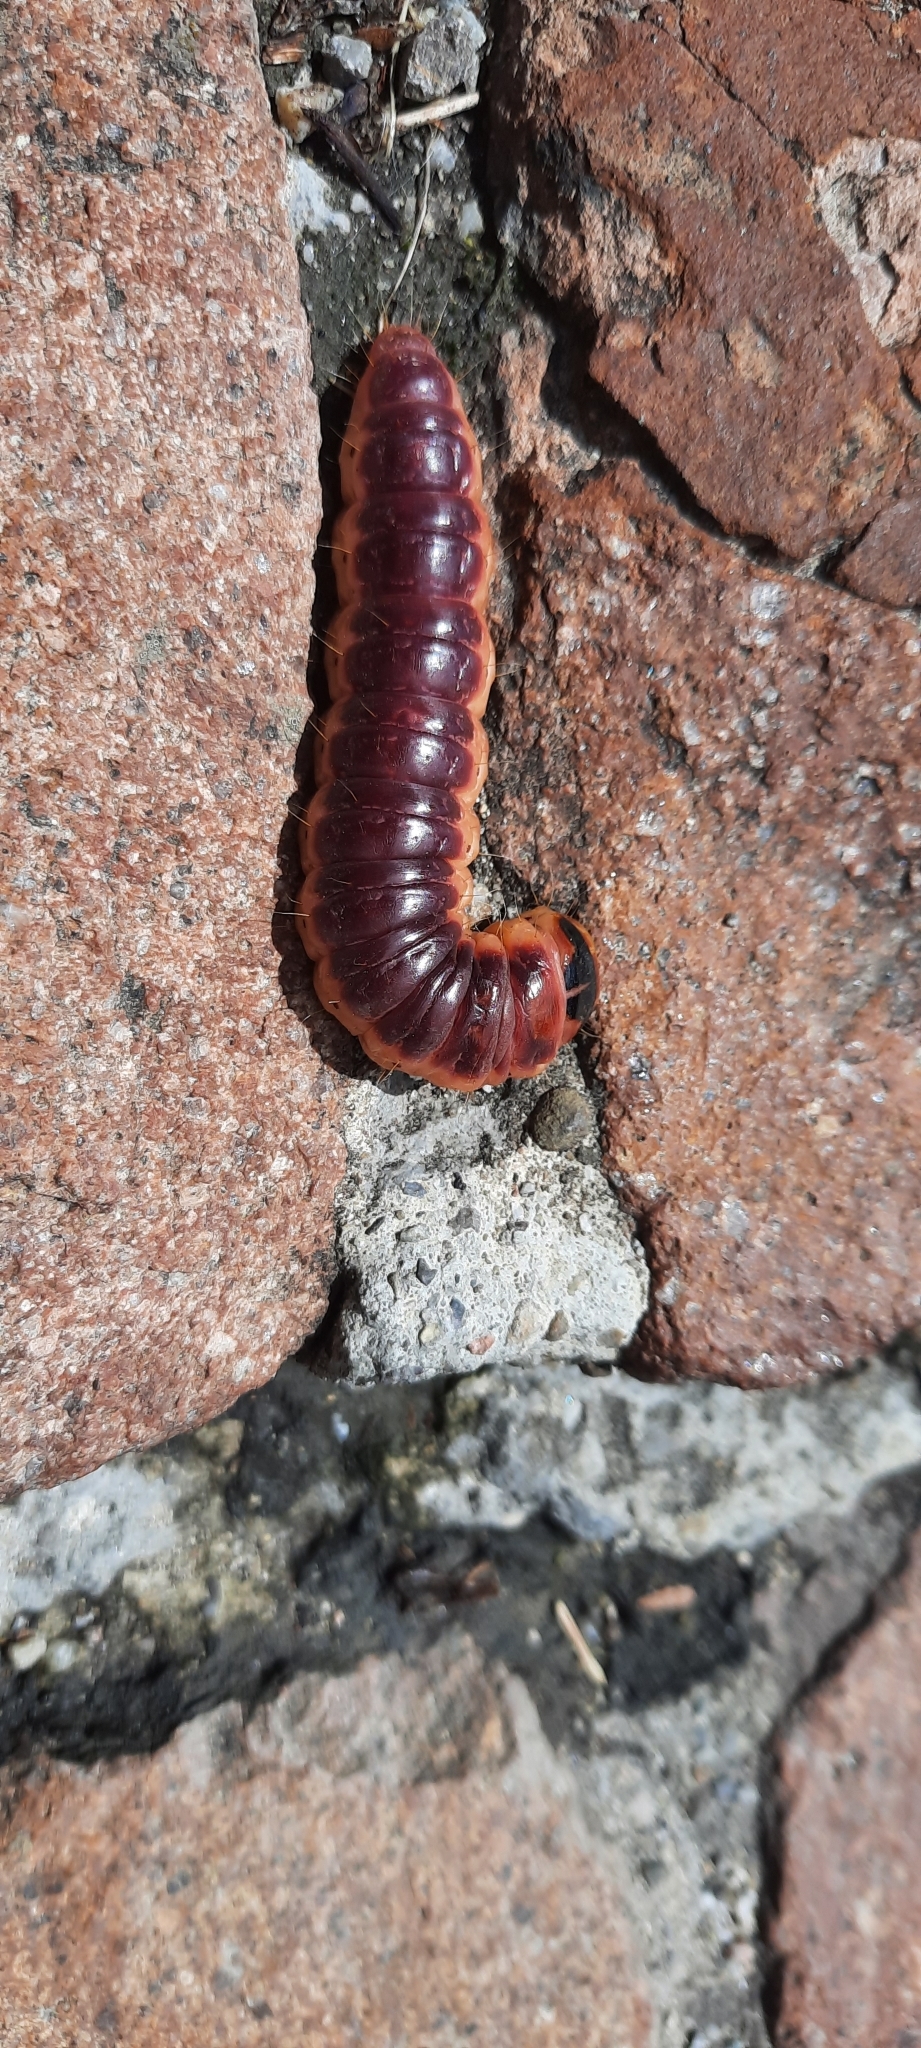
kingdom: Animalia
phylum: Arthropoda
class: Insecta
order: Lepidoptera
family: Cossidae
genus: Cossus
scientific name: Cossus cossus
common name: Goat moth
